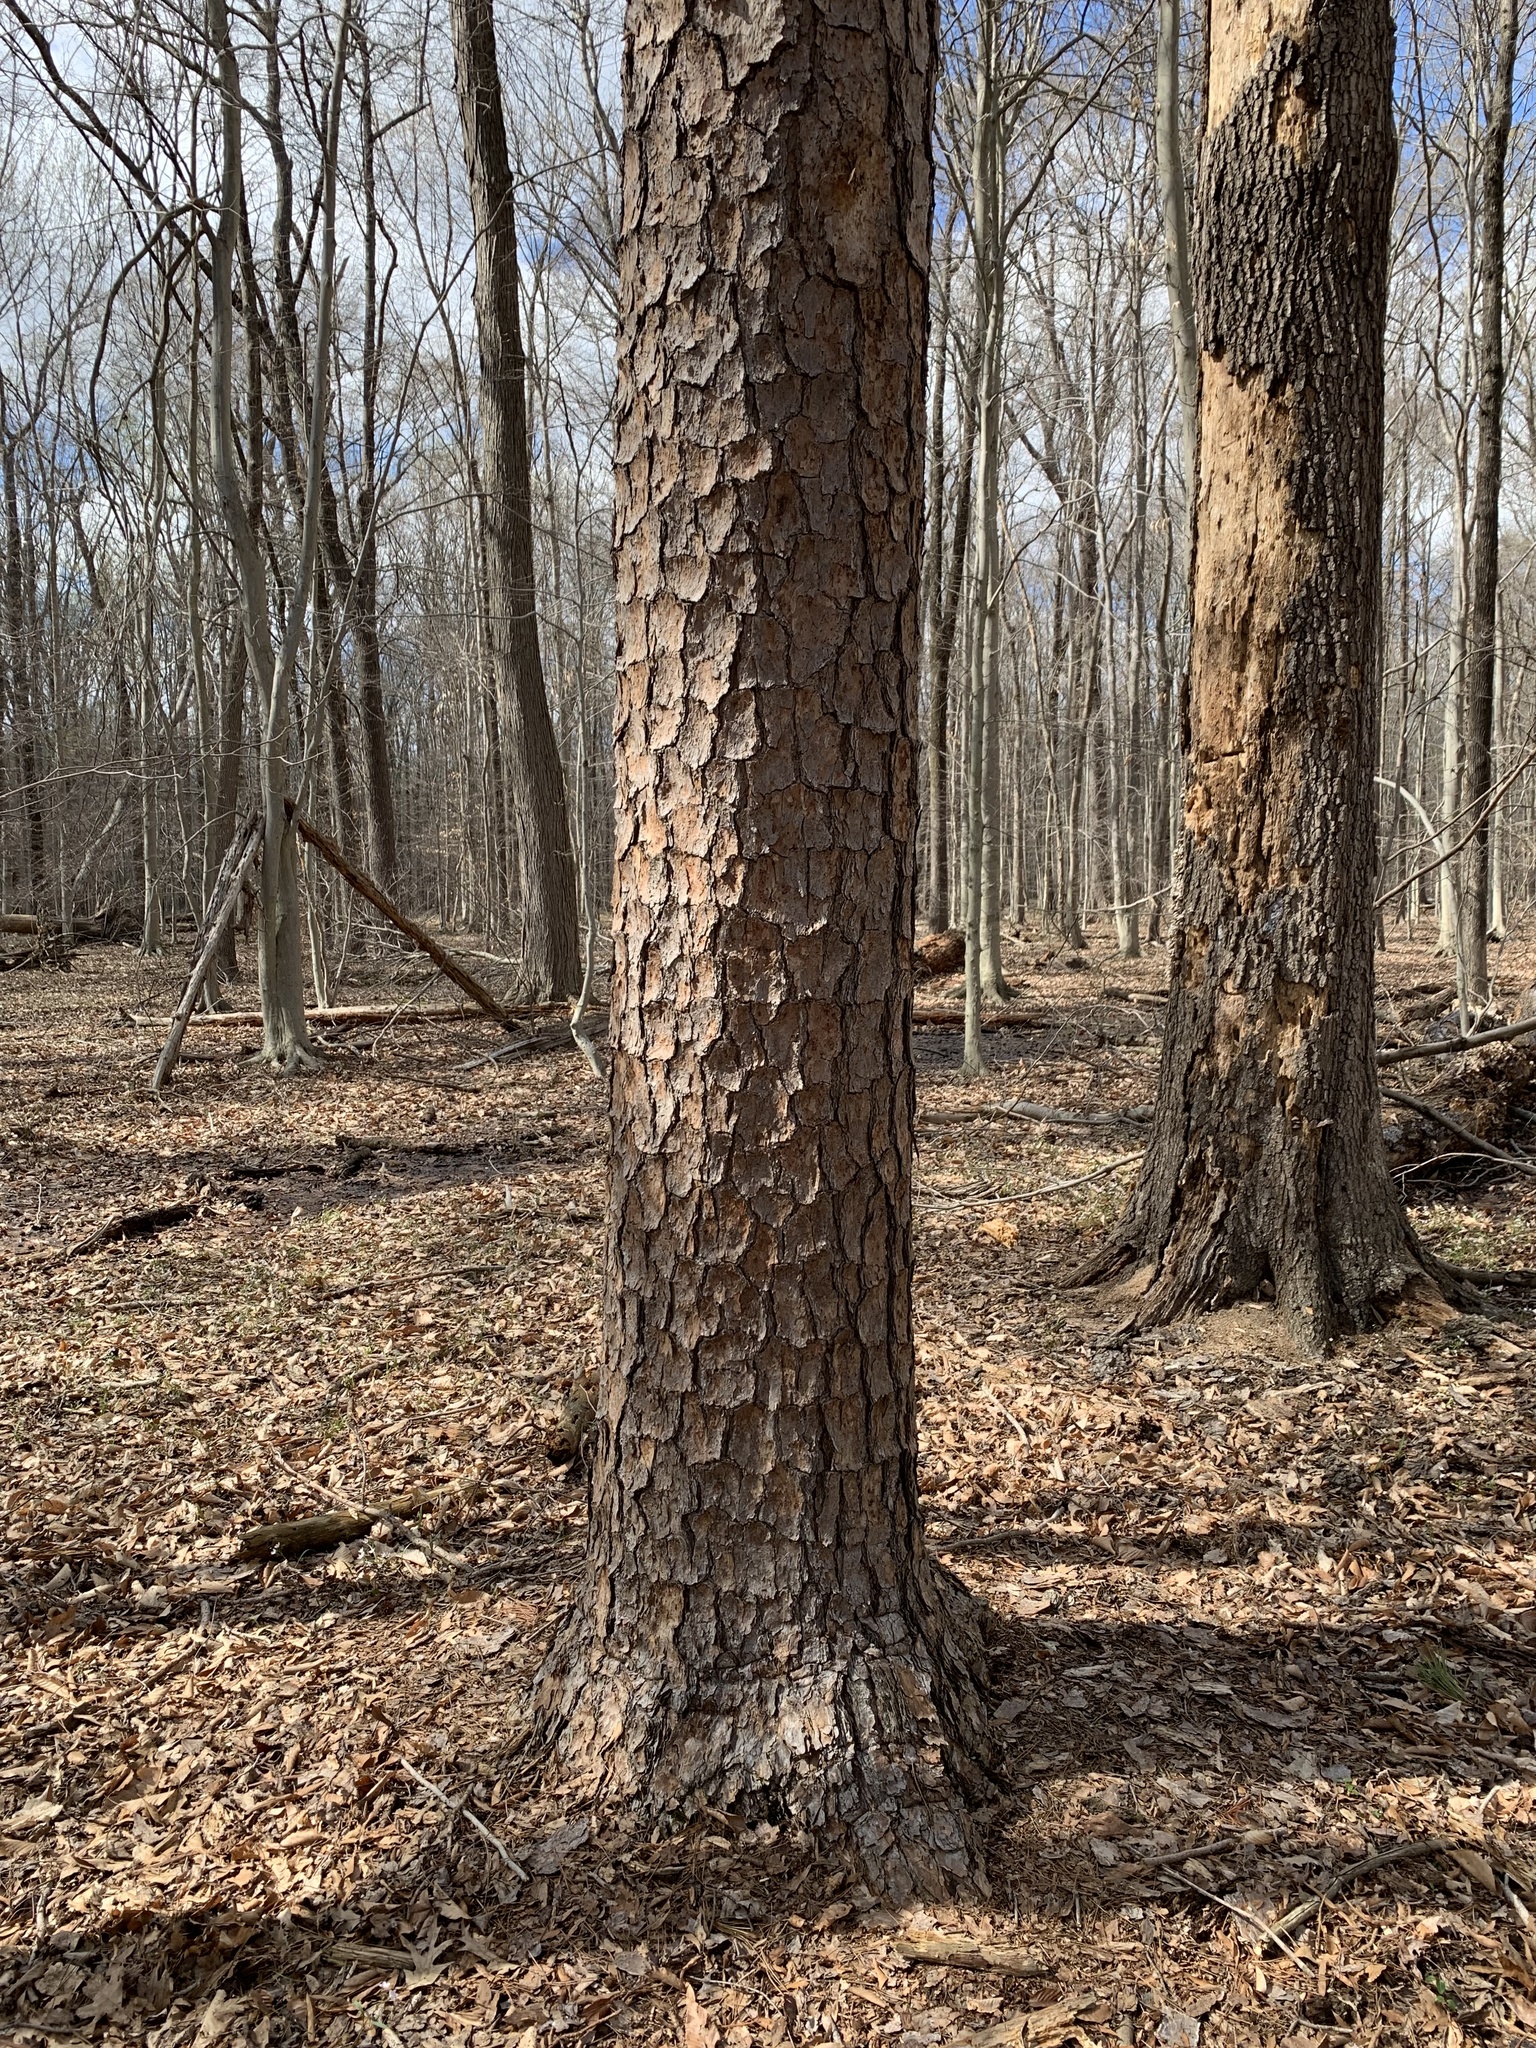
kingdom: Plantae
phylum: Tracheophyta
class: Pinopsida
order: Pinales
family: Pinaceae
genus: Pinus
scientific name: Pinus virginiana
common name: Scrub pine
